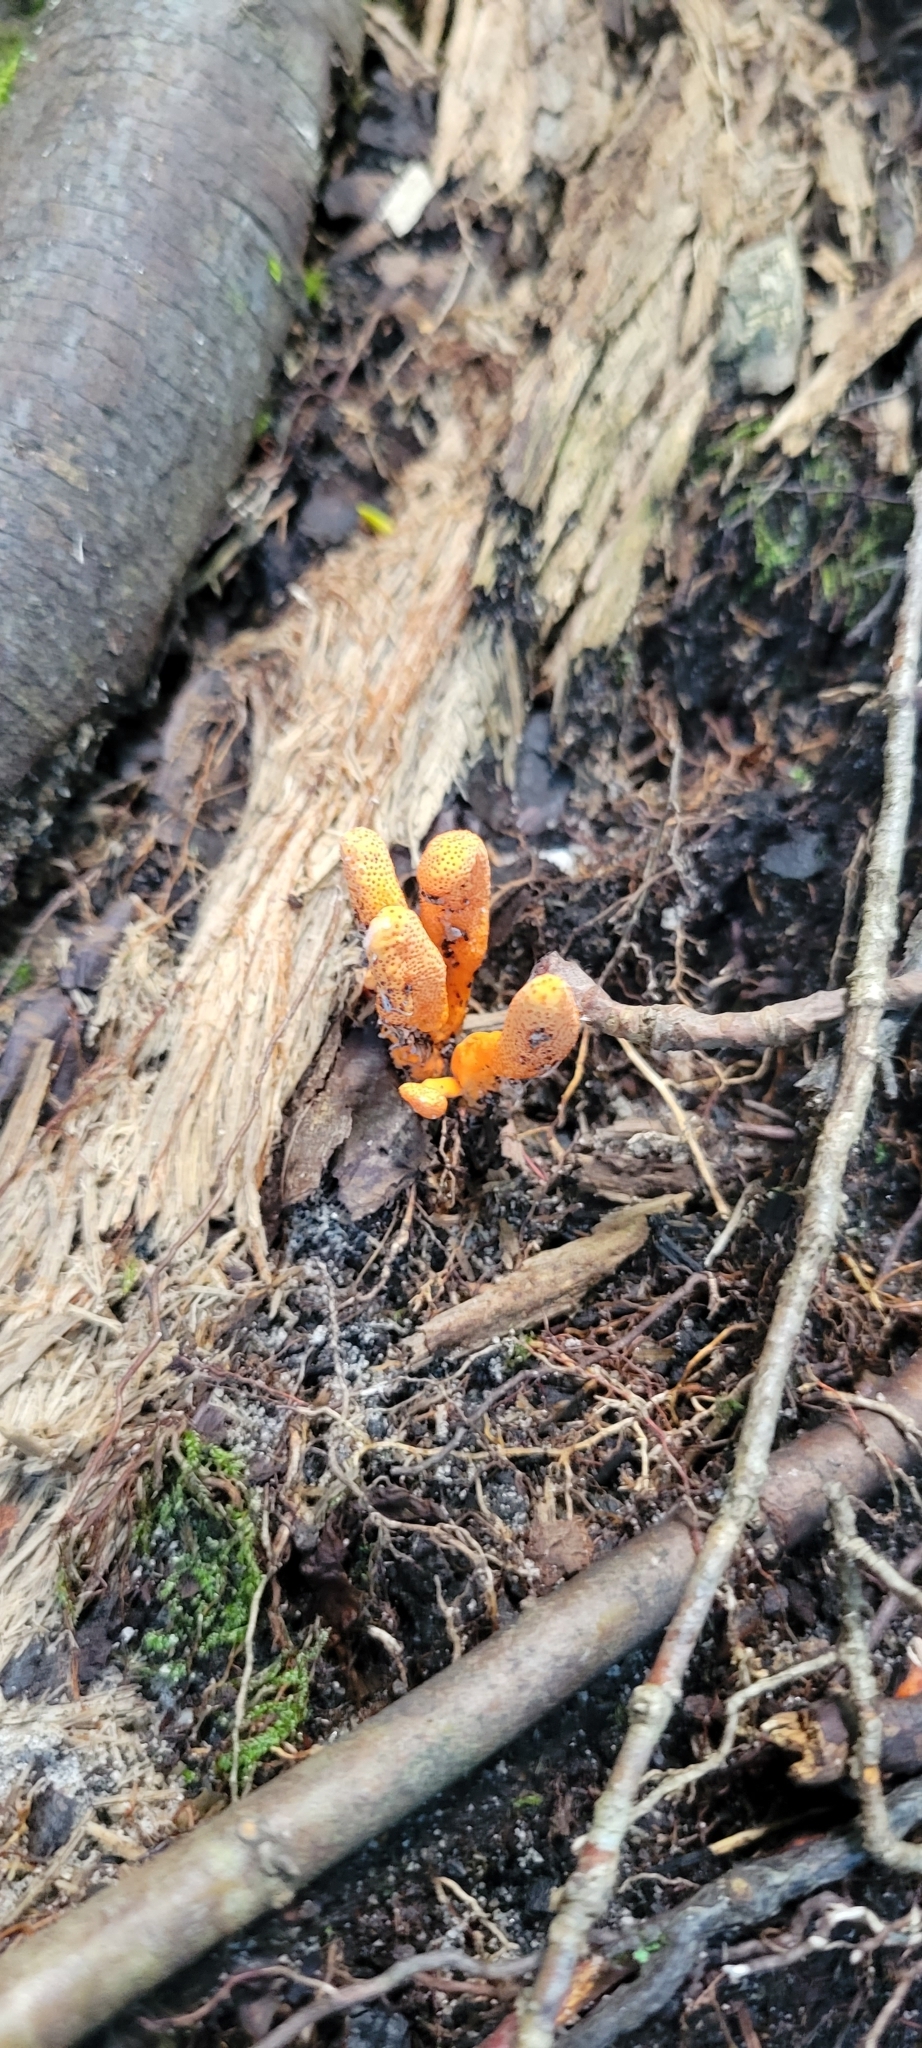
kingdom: Fungi
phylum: Ascomycota
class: Sordariomycetes
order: Hypocreales
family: Cordycipitaceae
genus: Cordyceps
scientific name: Cordyceps militaris
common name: Scarlet caterpillar fungus
